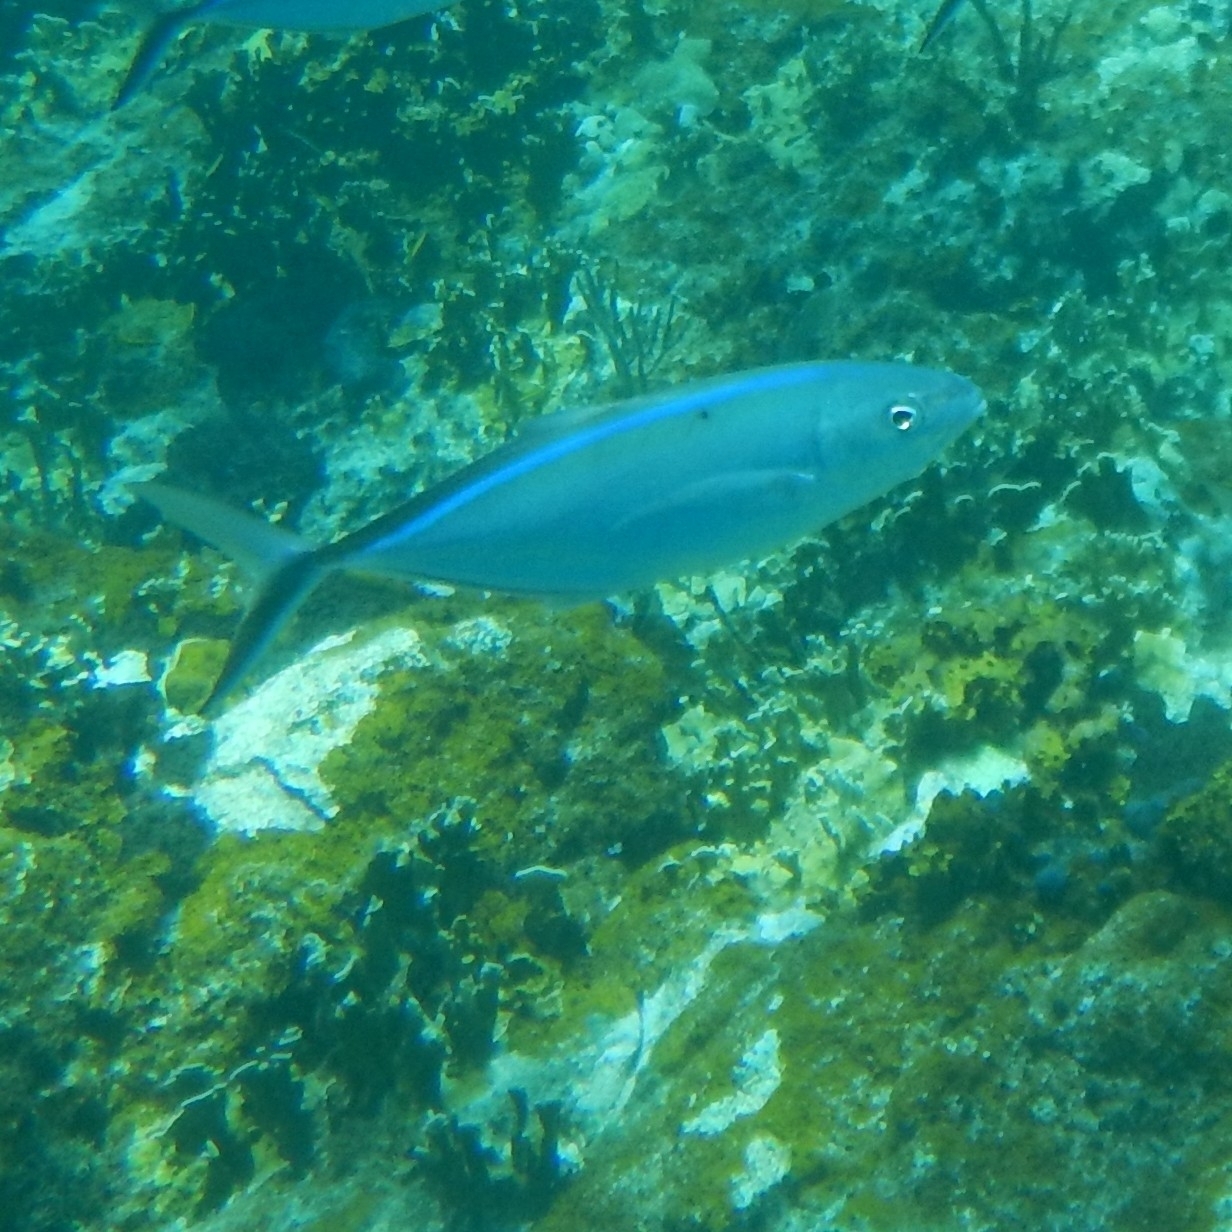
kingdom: Animalia
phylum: Chordata
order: Perciformes
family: Carangidae
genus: Caranx
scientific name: Caranx ruber
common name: Bar jack
